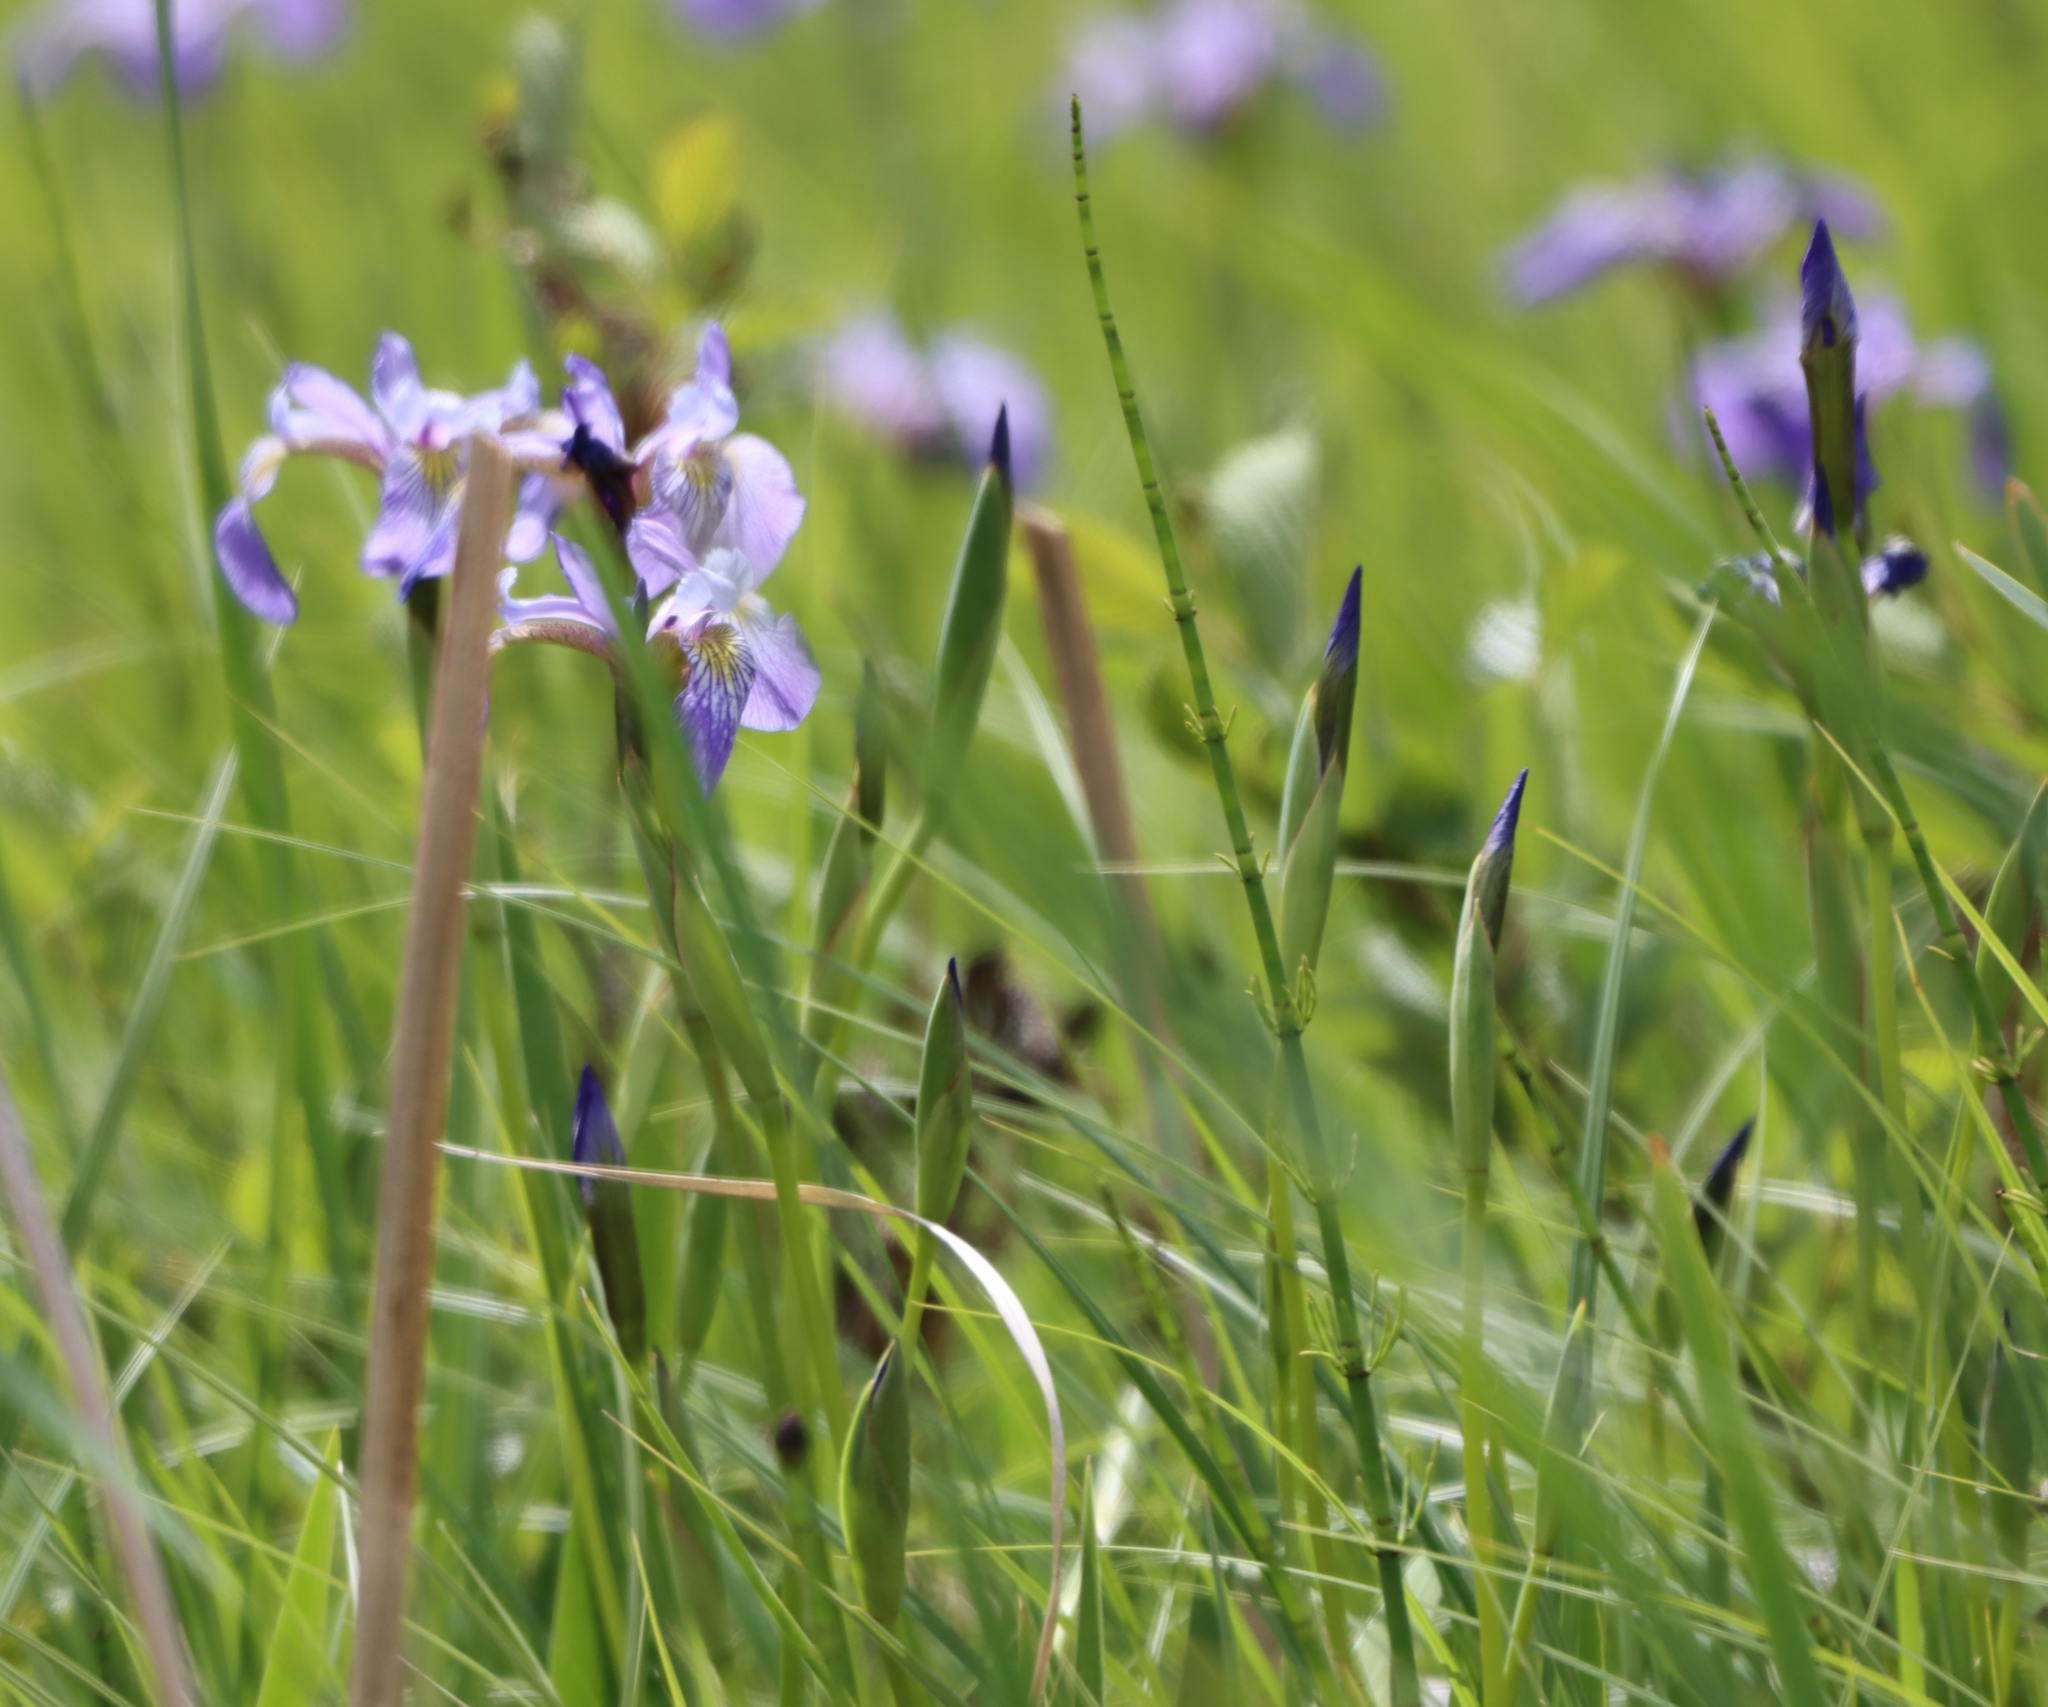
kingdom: Plantae
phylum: Tracheophyta
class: Liliopsida
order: Asparagales
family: Iridaceae
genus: Iris
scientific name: Iris versicolor
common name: Purple iris
